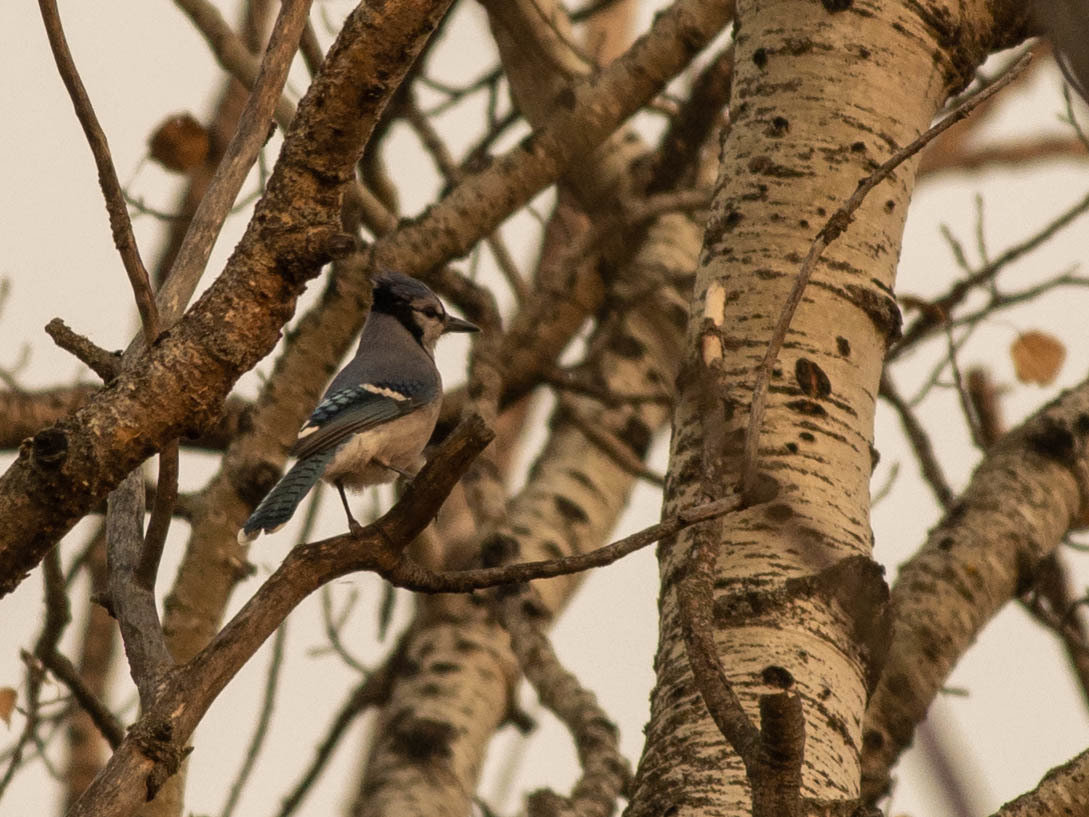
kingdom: Animalia
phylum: Chordata
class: Aves
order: Passeriformes
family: Corvidae
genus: Cyanocitta
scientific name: Cyanocitta cristata
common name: Blue jay
